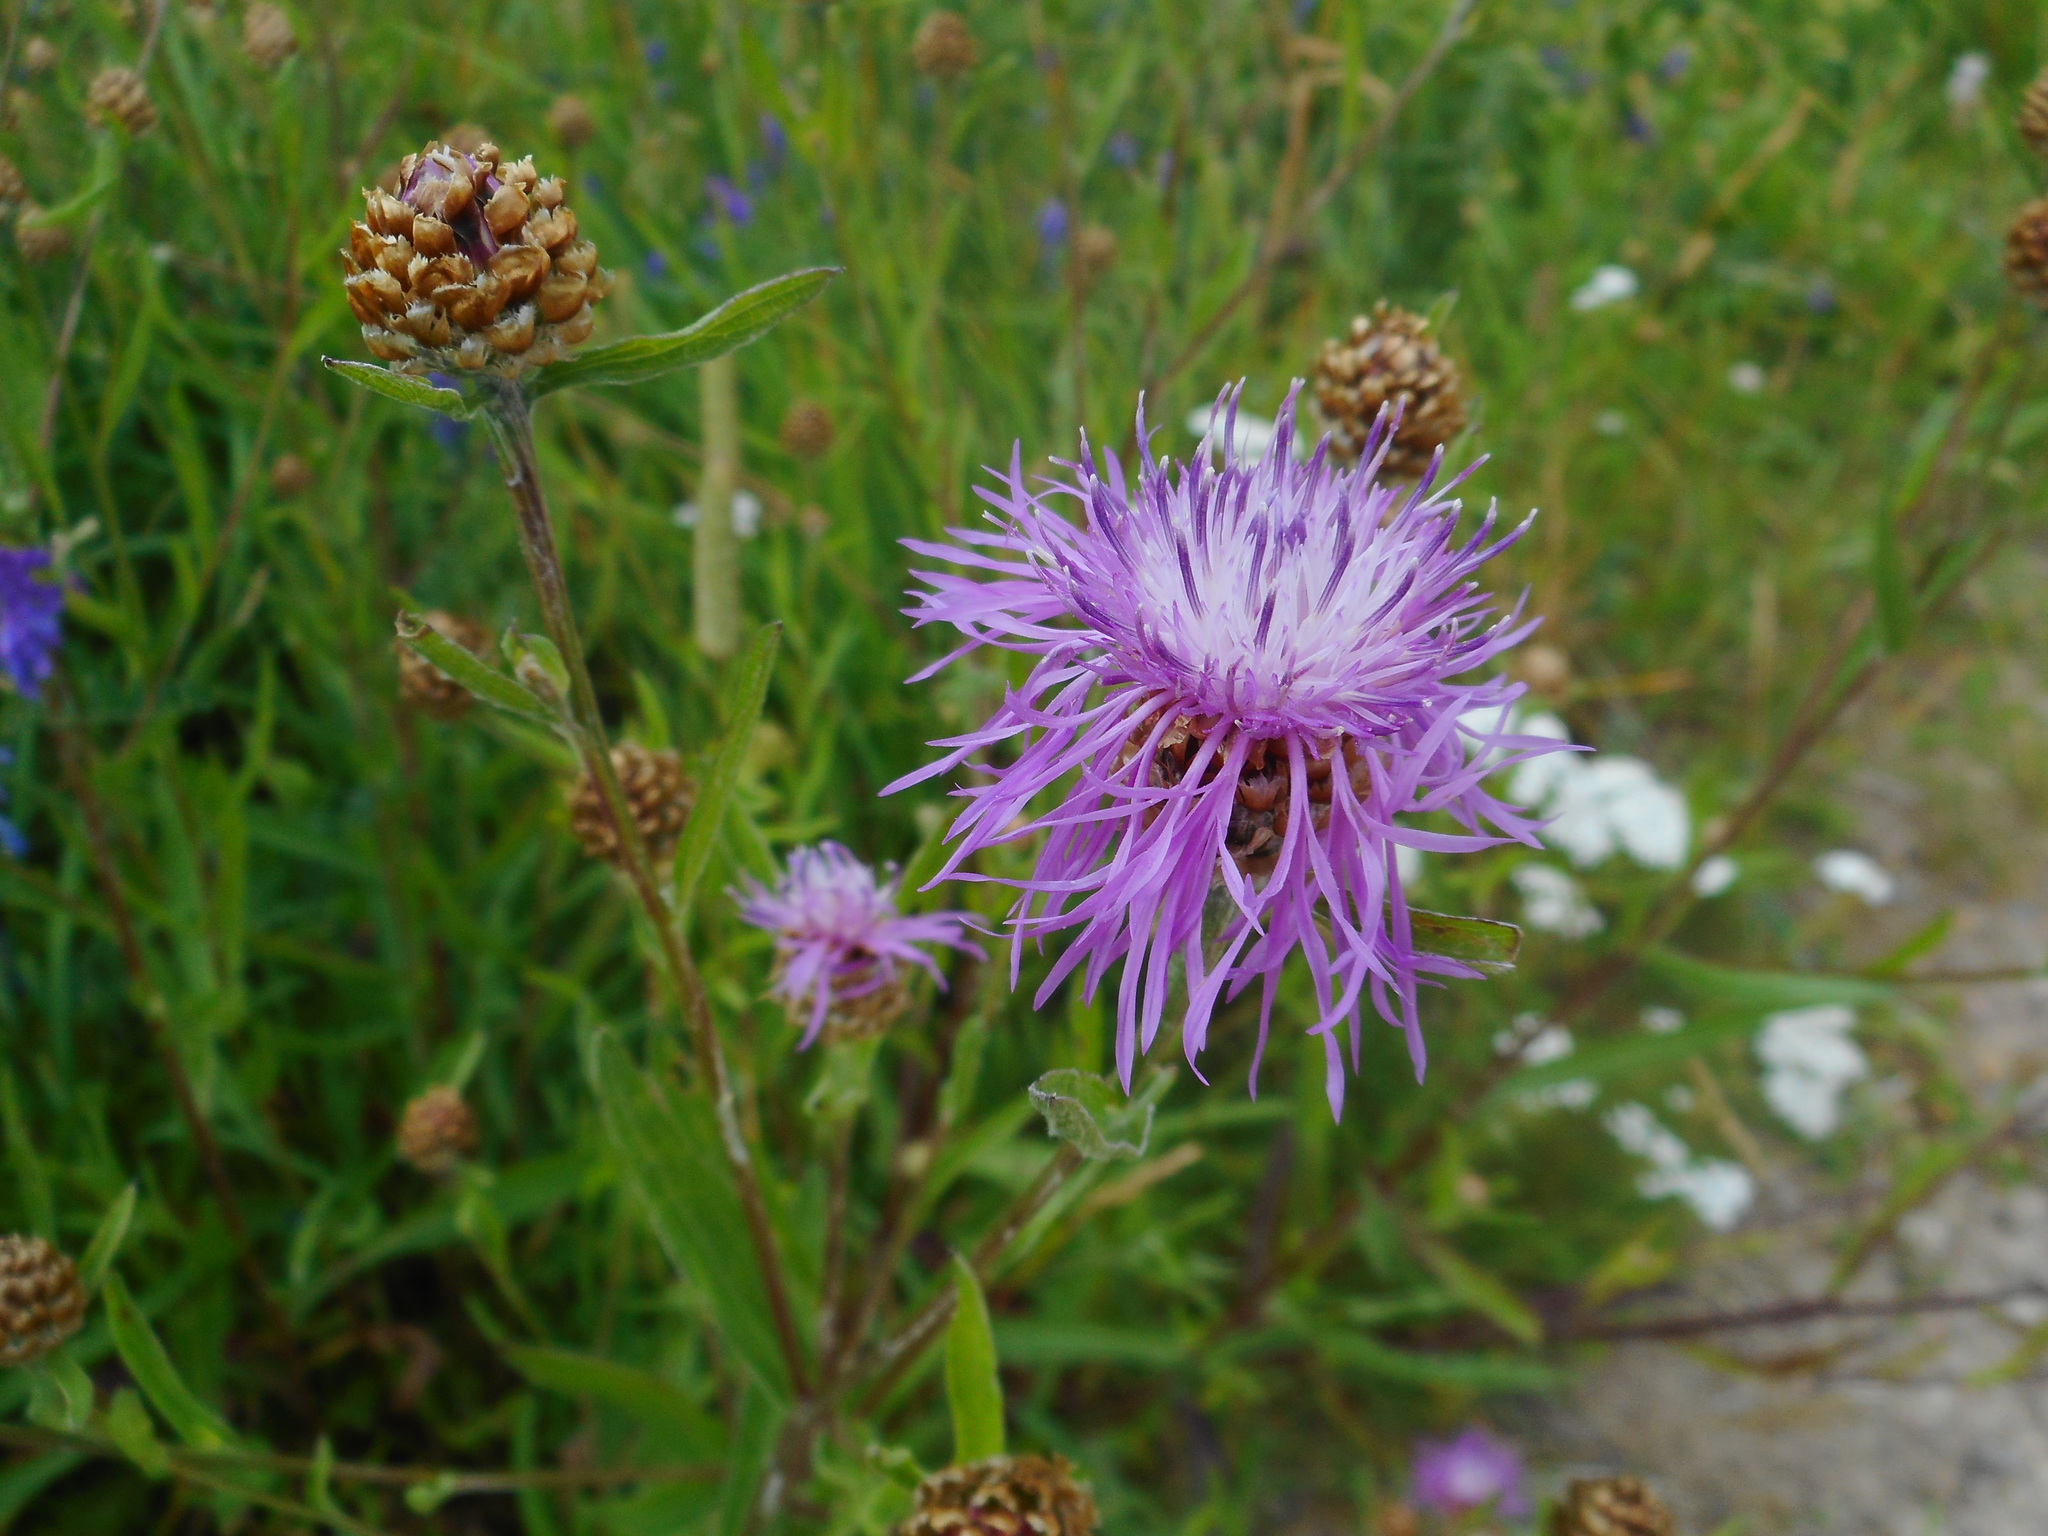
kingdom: Plantae
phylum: Tracheophyta
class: Magnoliopsida
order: Asterales
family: Asteraceae
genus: Centaurea
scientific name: Centaurea jacea
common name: Brown knapweed
